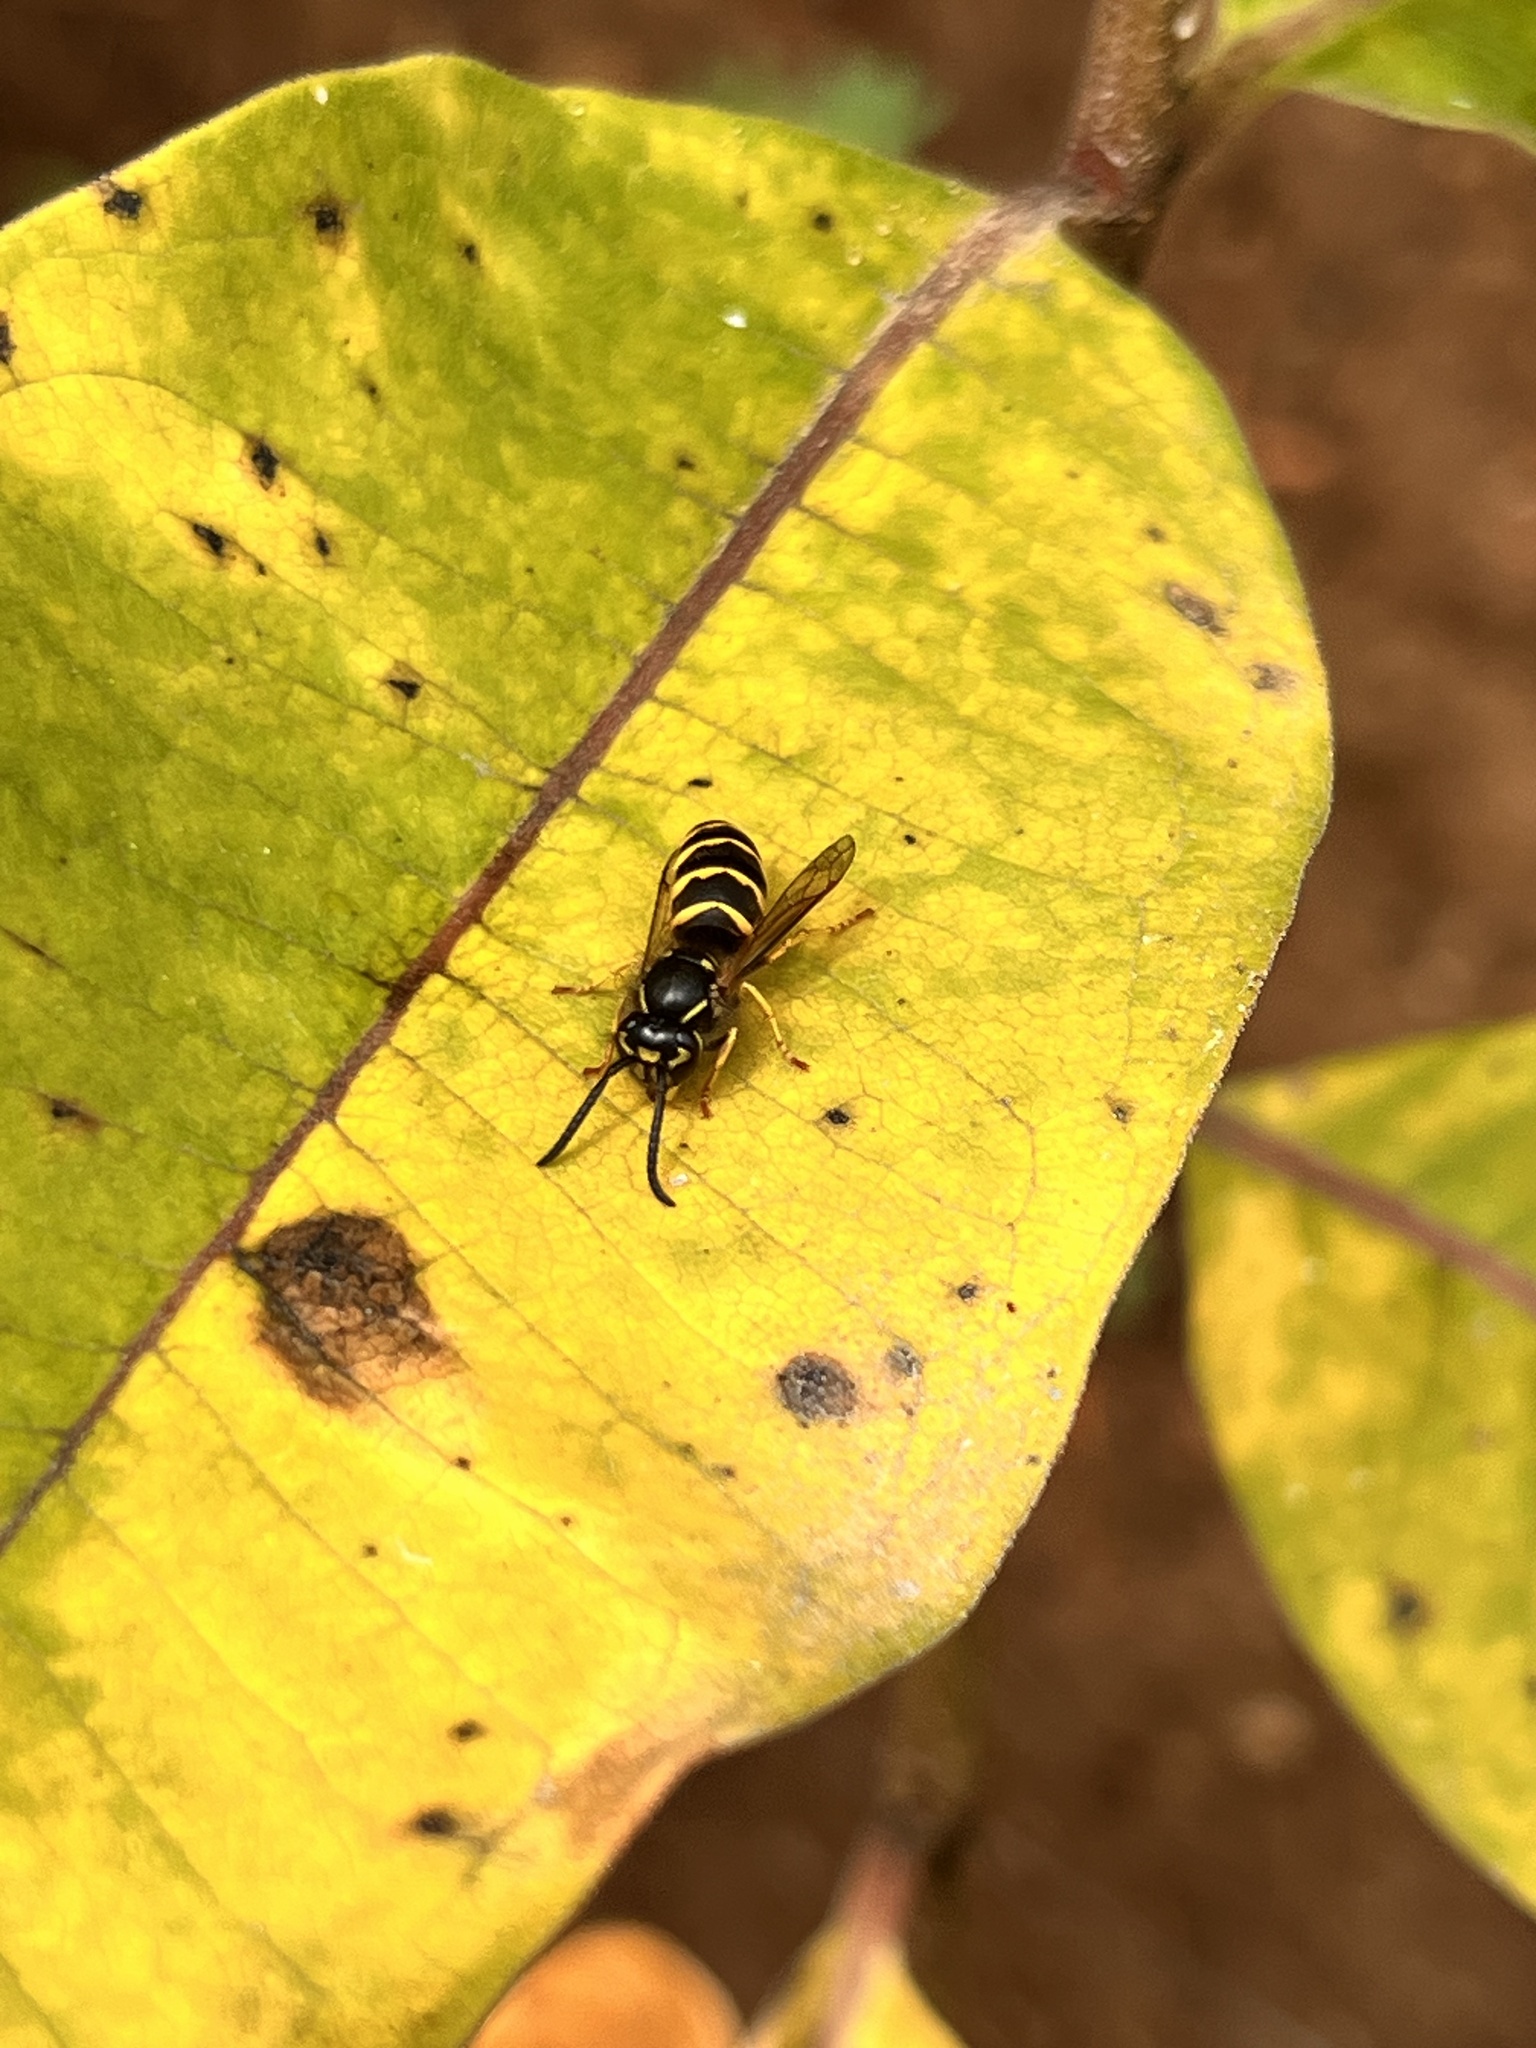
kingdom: Animalia
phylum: Arthropoda
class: Insecta
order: Hymenoptera
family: Vespidae
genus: Vespula
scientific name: Vespula alascensis
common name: Alaska yellowjacket
